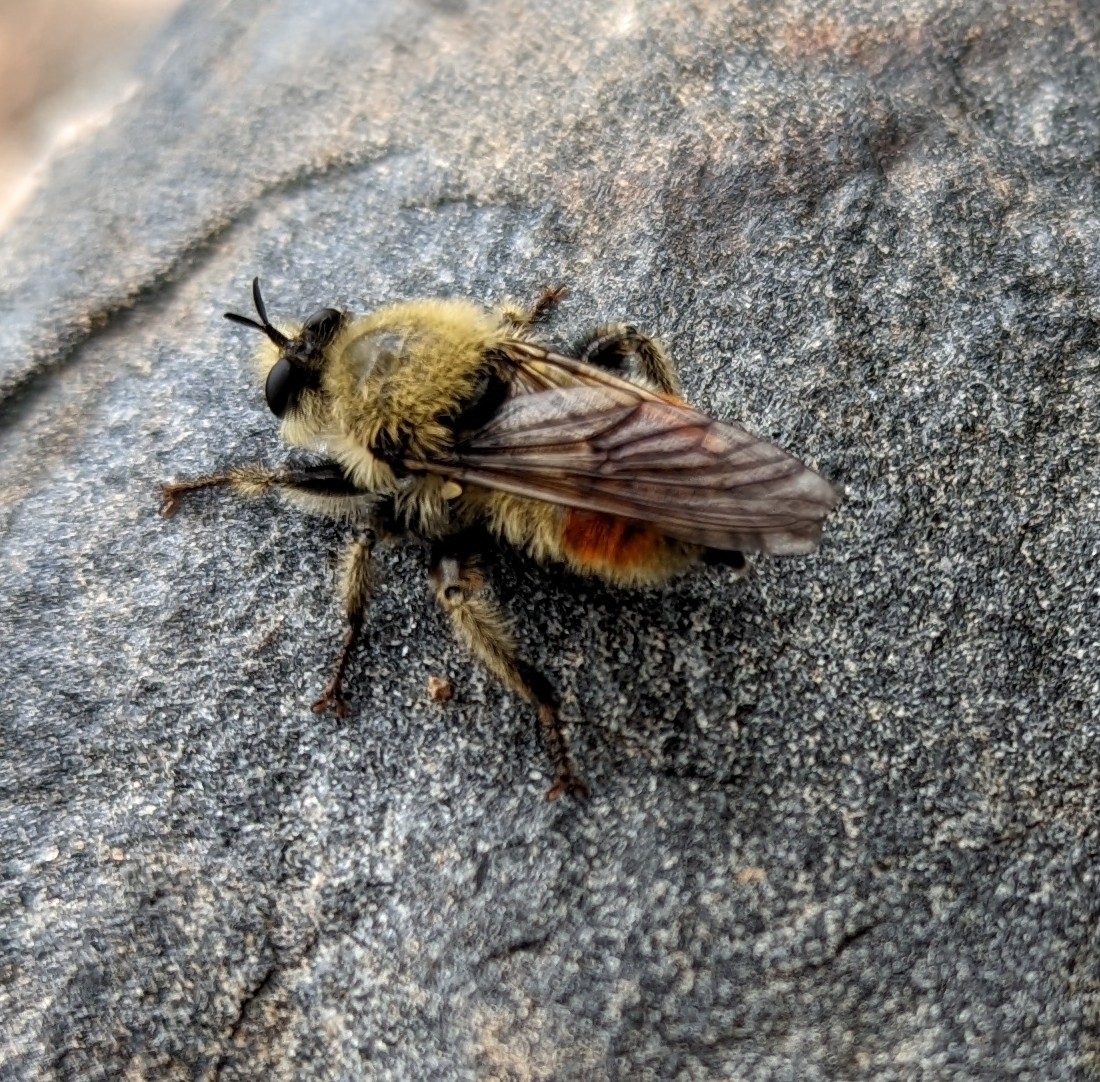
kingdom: Animalia
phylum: Arthropoda
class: Insecta
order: Diptera
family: Asilidae
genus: Laphria
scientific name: Laphria fernaldi
